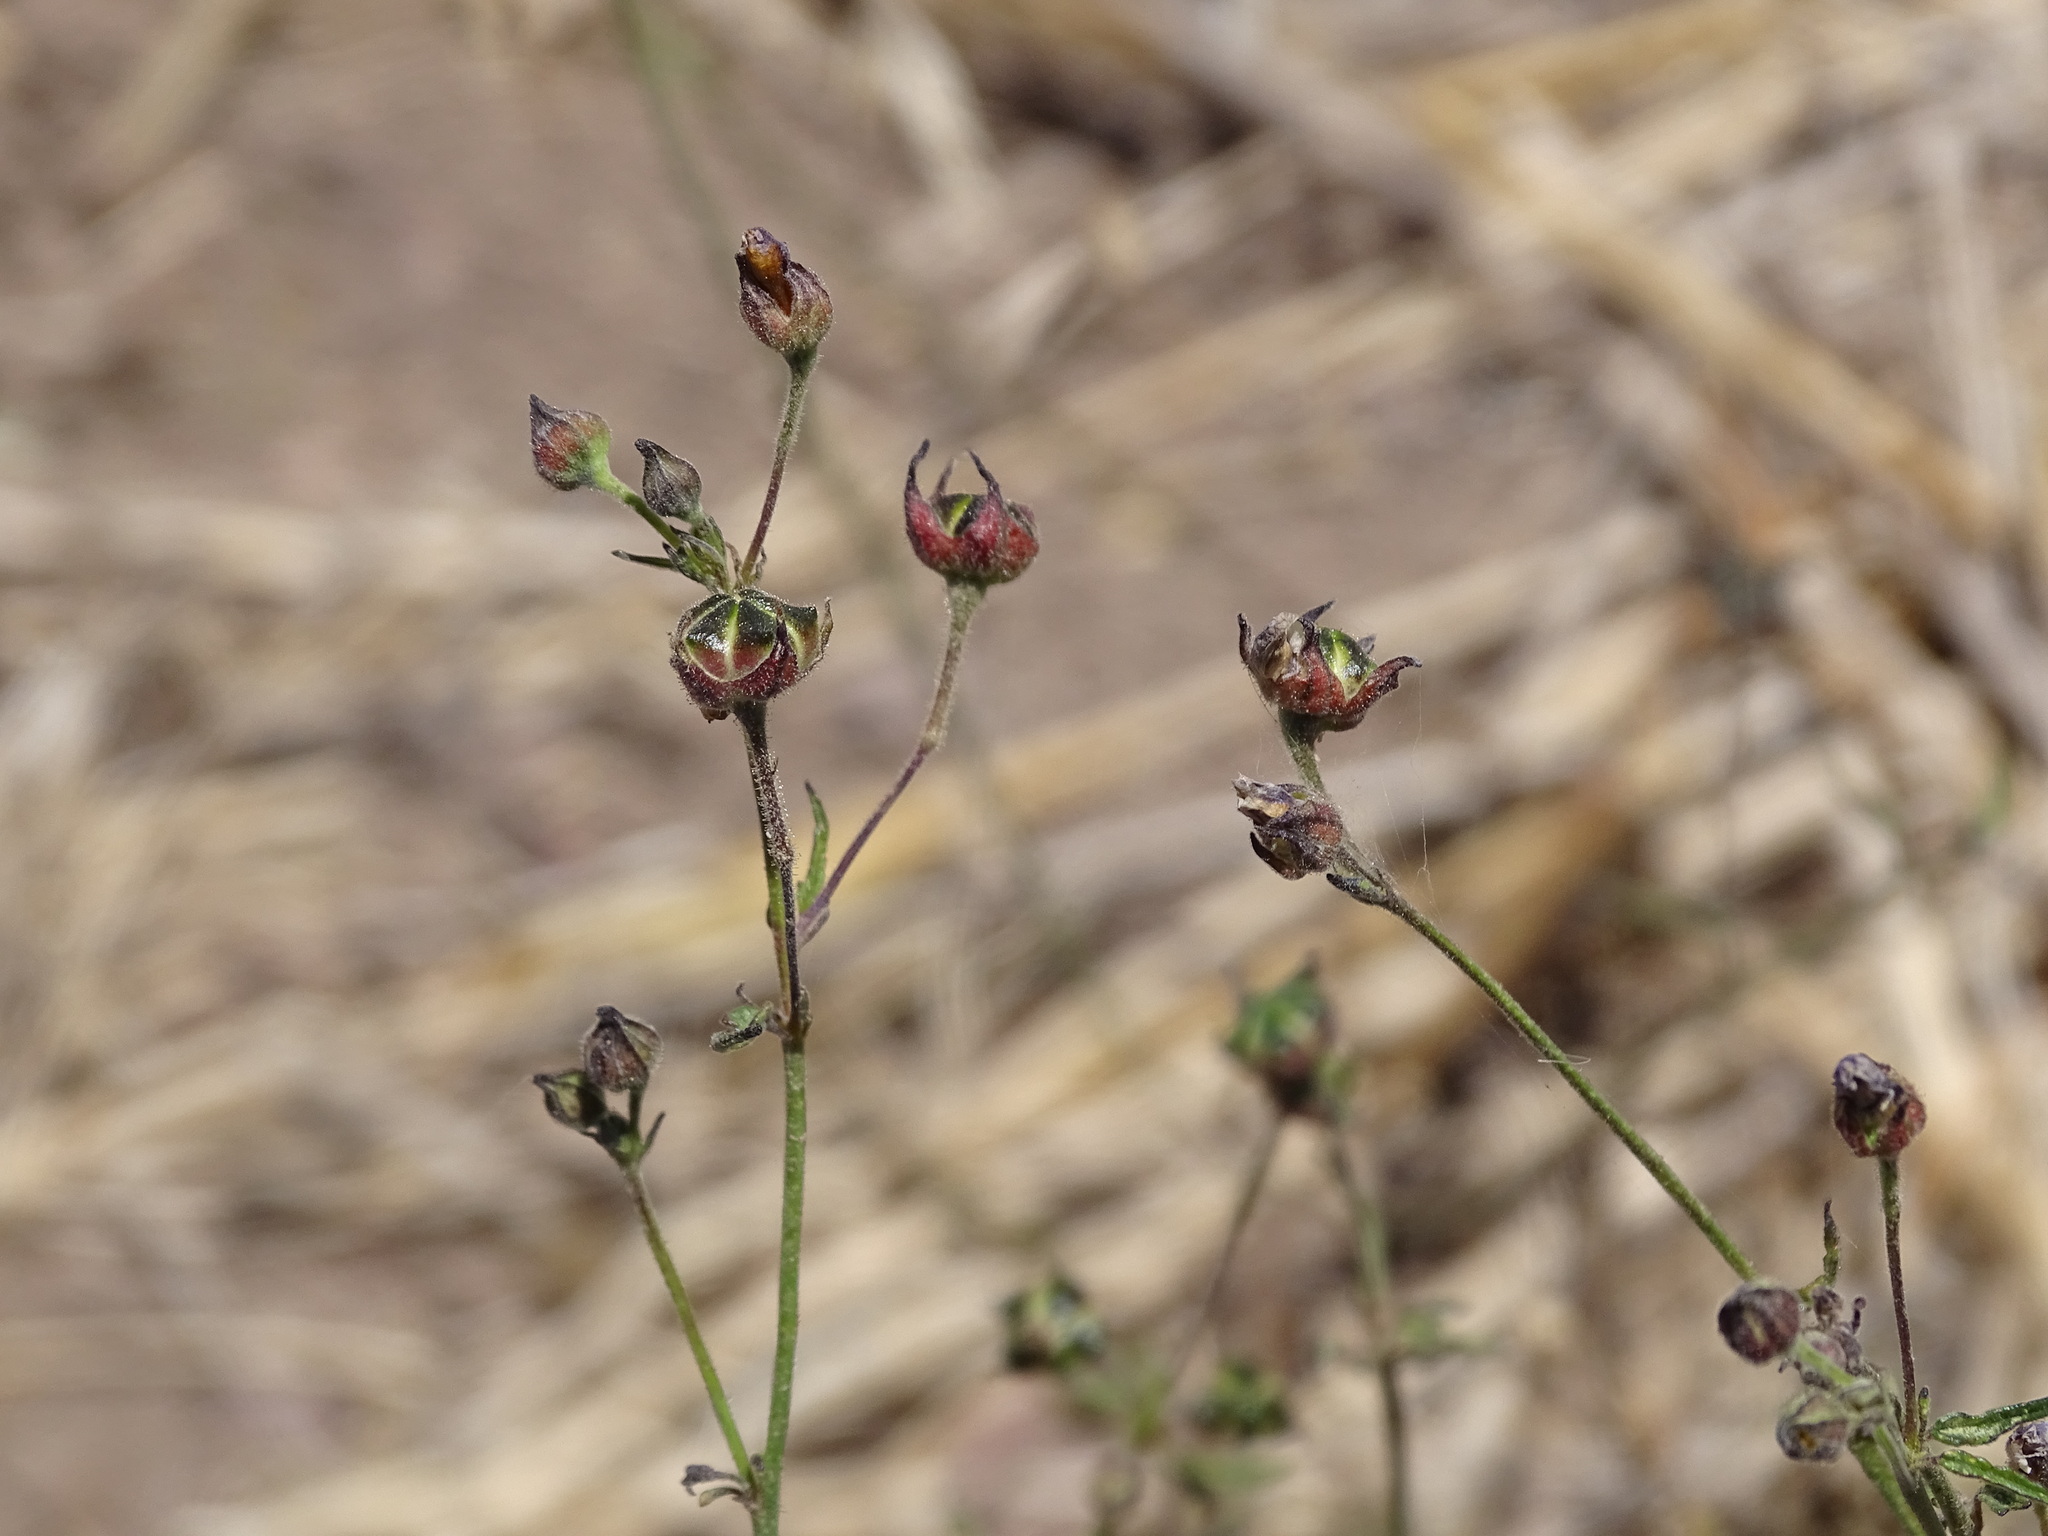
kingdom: Plantae
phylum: Tracheophyta
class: Magnoliopsida
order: Malvales
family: Malvaceae
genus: Anoda
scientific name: Anoda pentaschista
